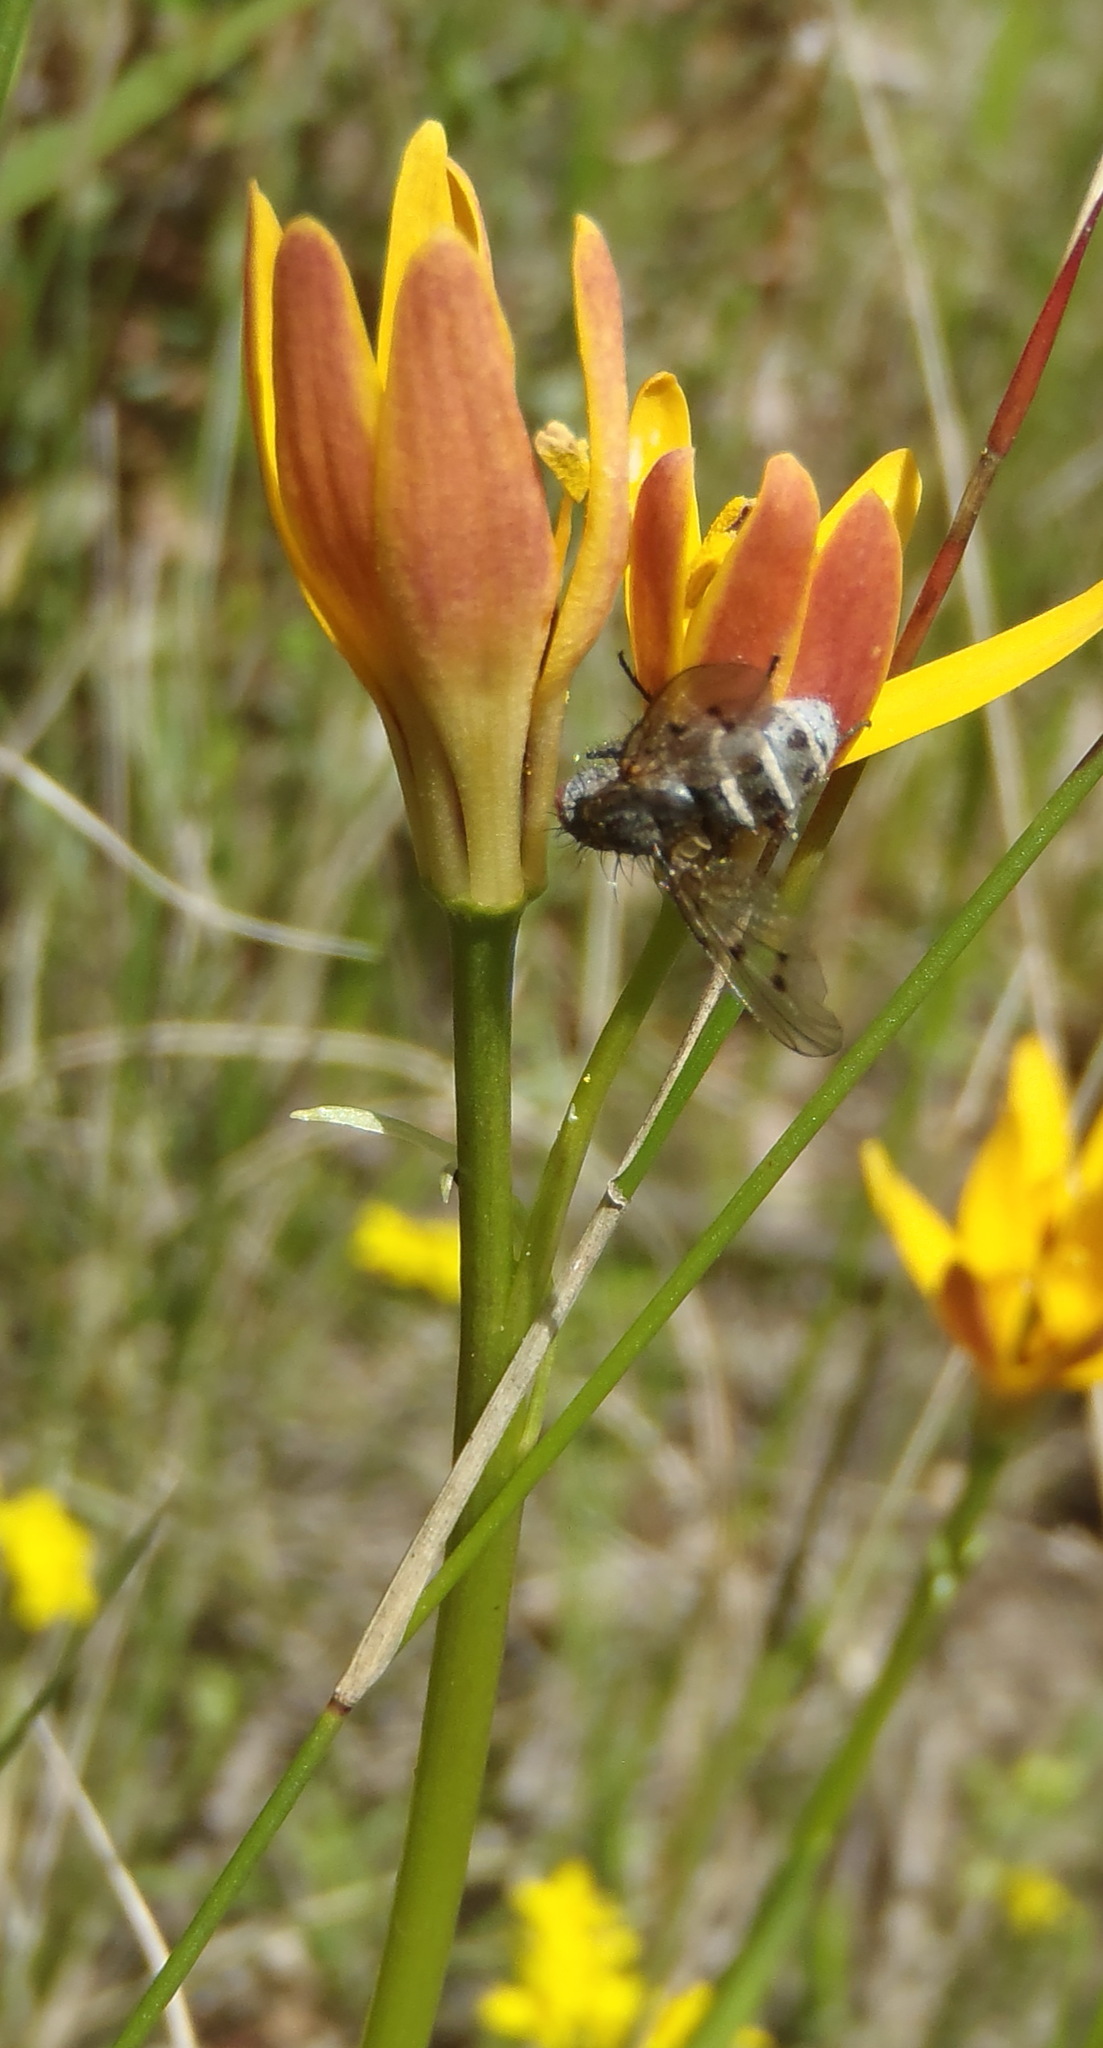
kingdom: Plantae
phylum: Tracheophyta
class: Liliopsida
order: Liliales
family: Colchicaceae
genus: Baeometra
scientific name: Baeometra uniflora
